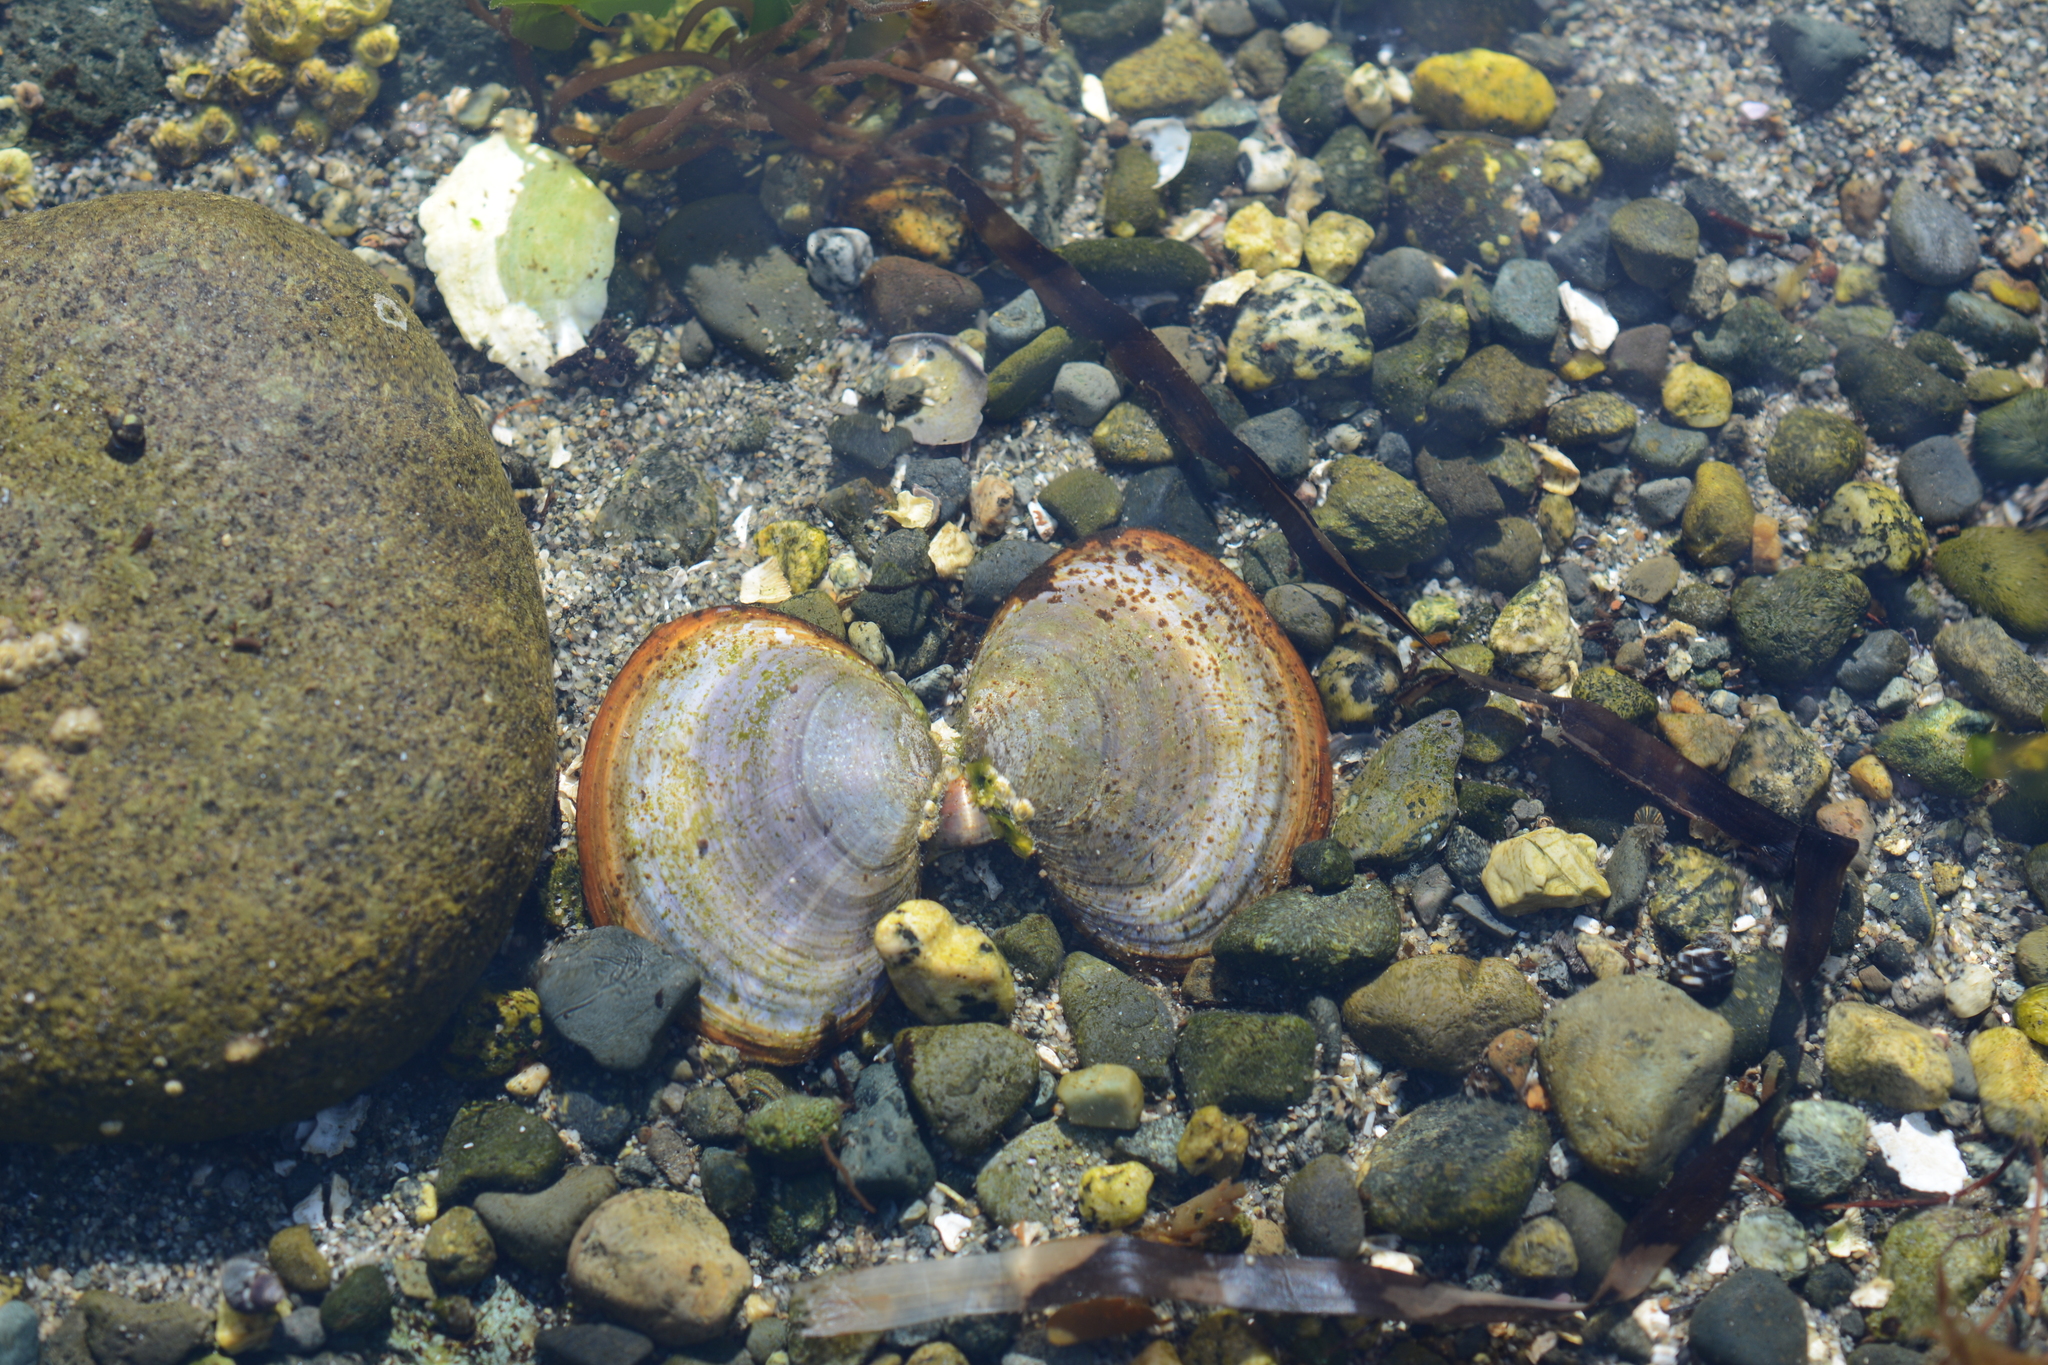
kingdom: Animalia
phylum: Mollusca
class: Bivalvia
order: Cardiida
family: Psammobiidae
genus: Nuttallia
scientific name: Nuttallia obscurata
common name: Purple mahogany-clam
